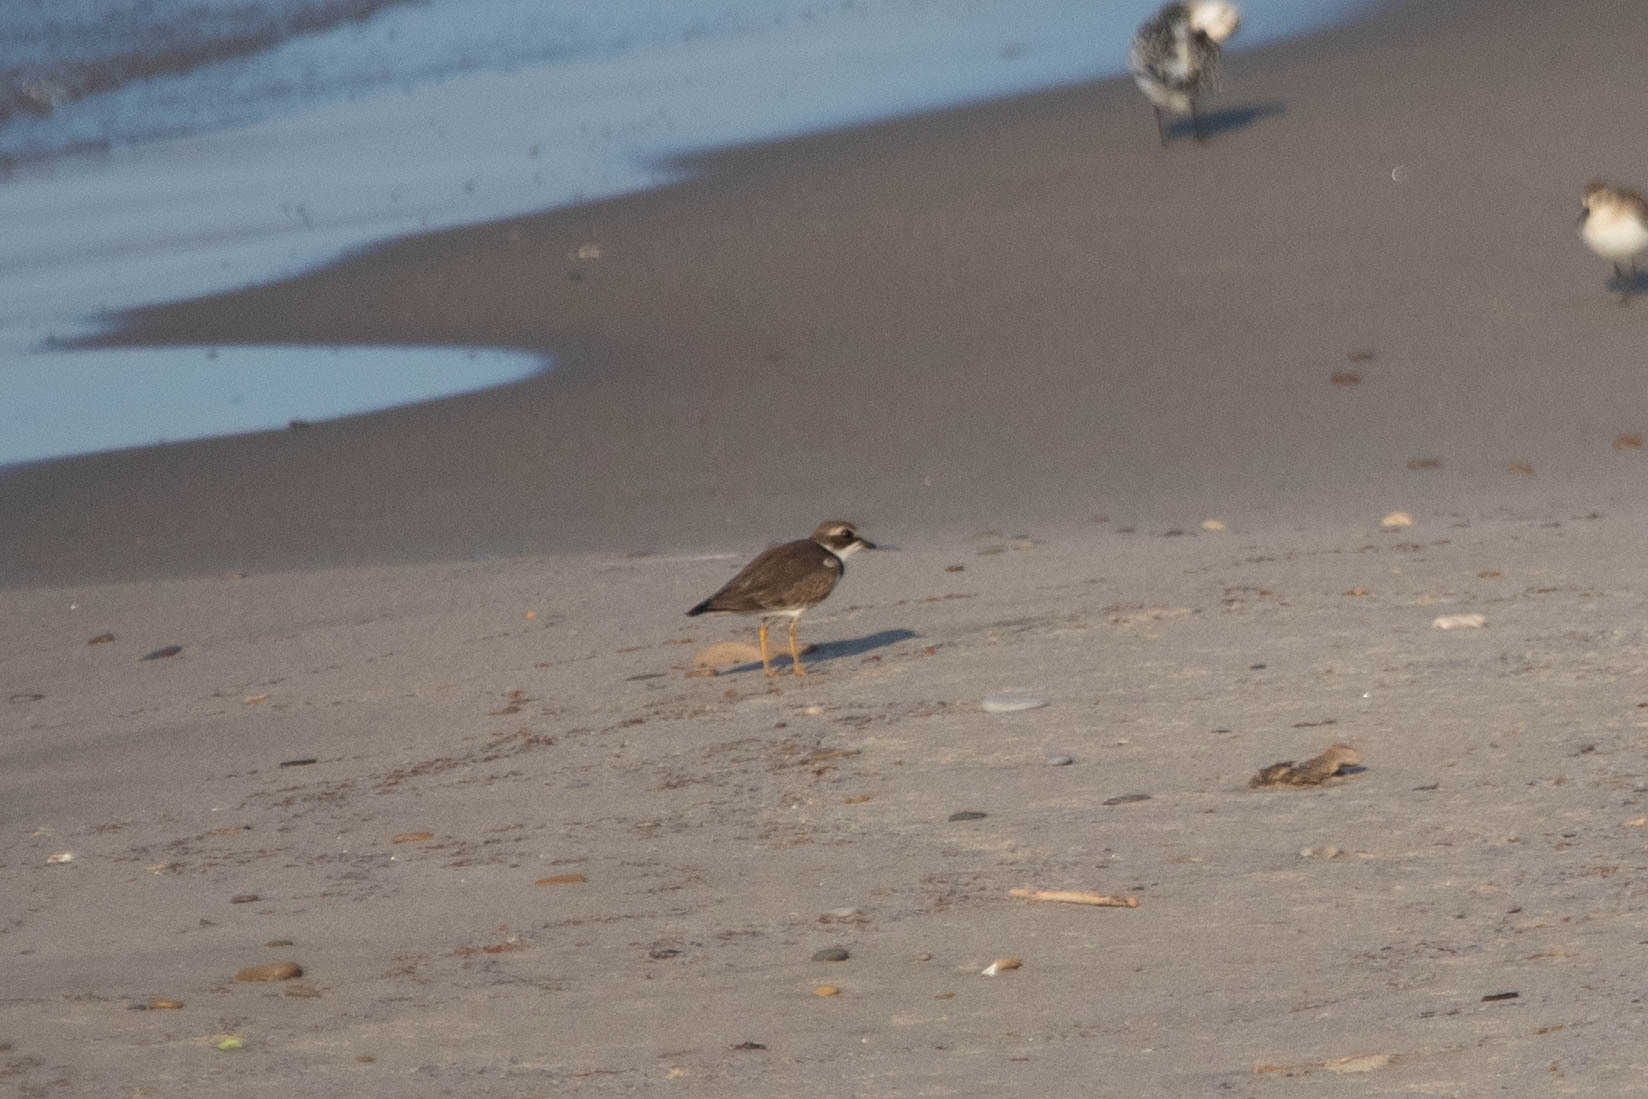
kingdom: Animalia
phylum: Chordata
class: Aves
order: Charadriiformes
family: Charadriidae
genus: Charadrius
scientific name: Charadrius semipalmatus
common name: Semipalmated plover
